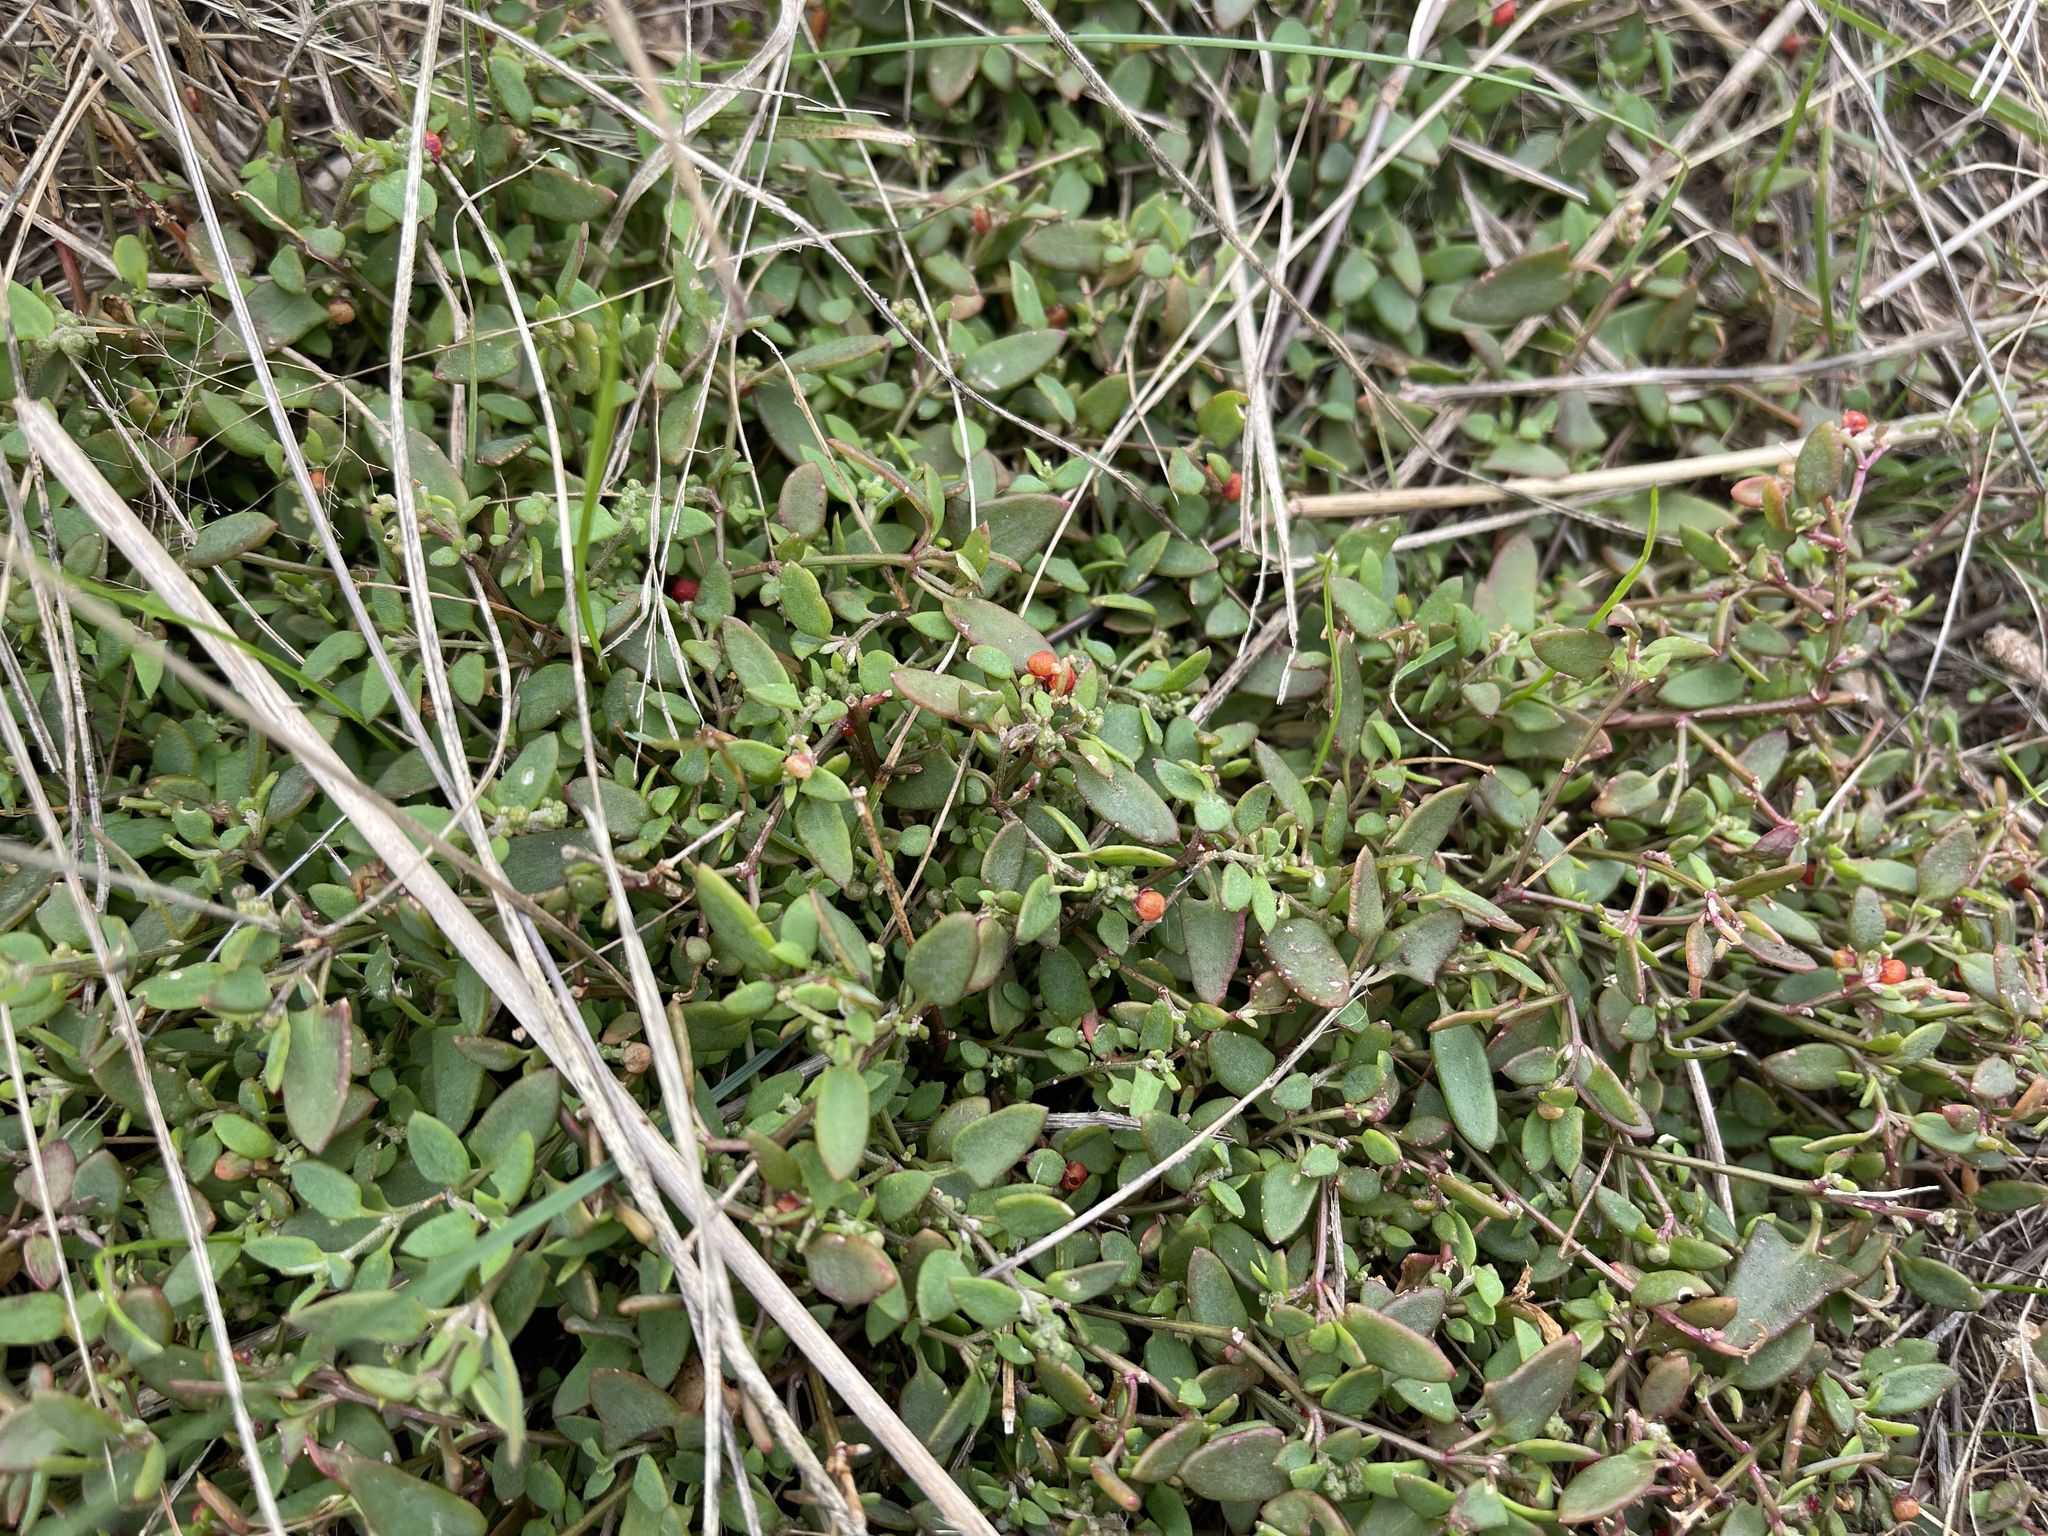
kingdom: Plantae
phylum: Tracheophyta
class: Magnoliopsida
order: Caryophyllales
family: Amaranthaceae
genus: Chenopodium
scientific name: Chenopodium nutans
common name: Climbing-saltbush
